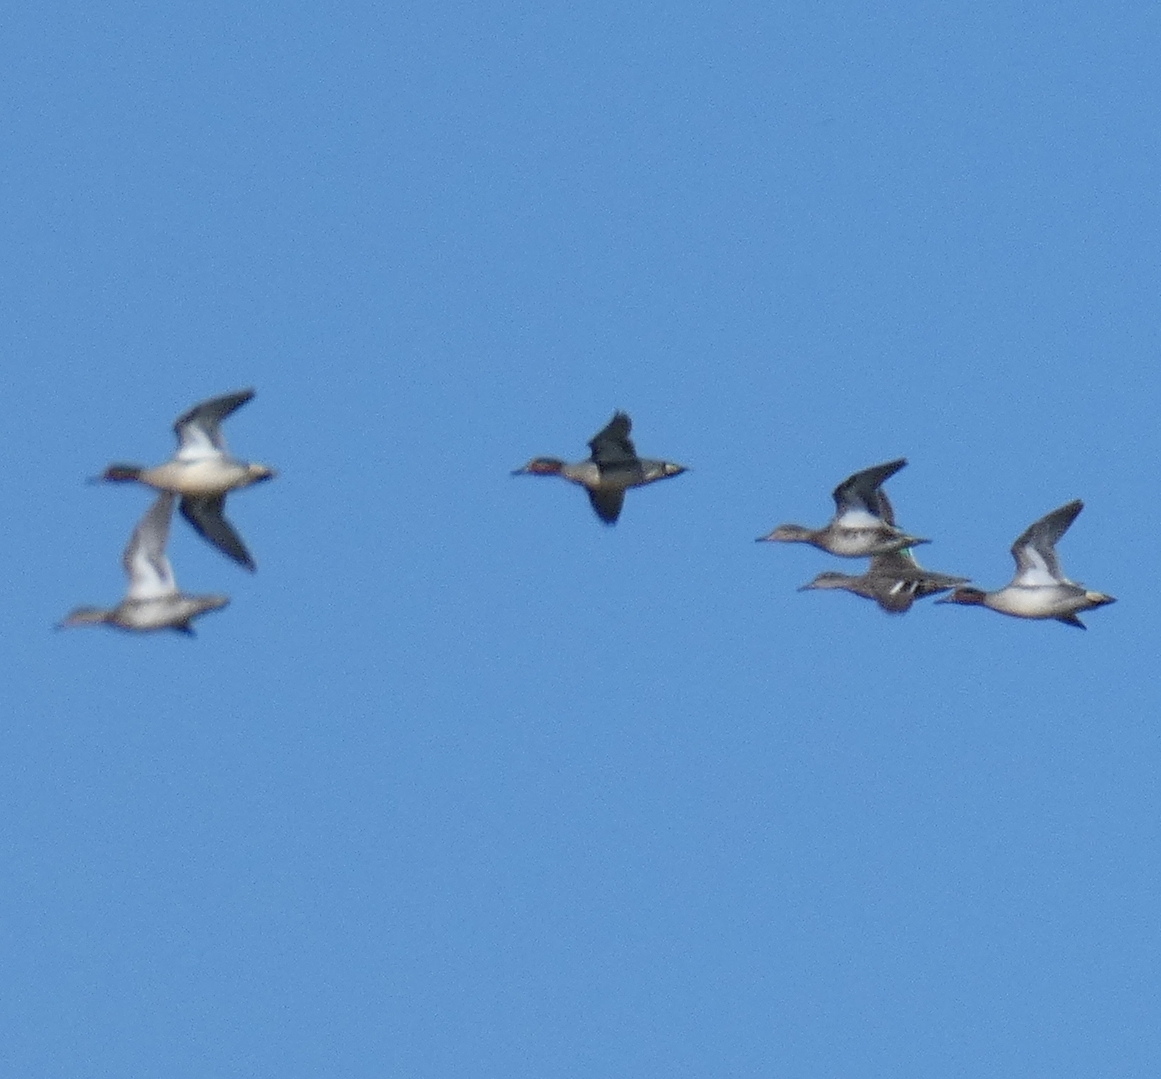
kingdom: Animalia
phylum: Chordata
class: Aves
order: Anseriformes
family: Anatidae
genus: Anas
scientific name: Anas crecca
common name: Eurasian teal
